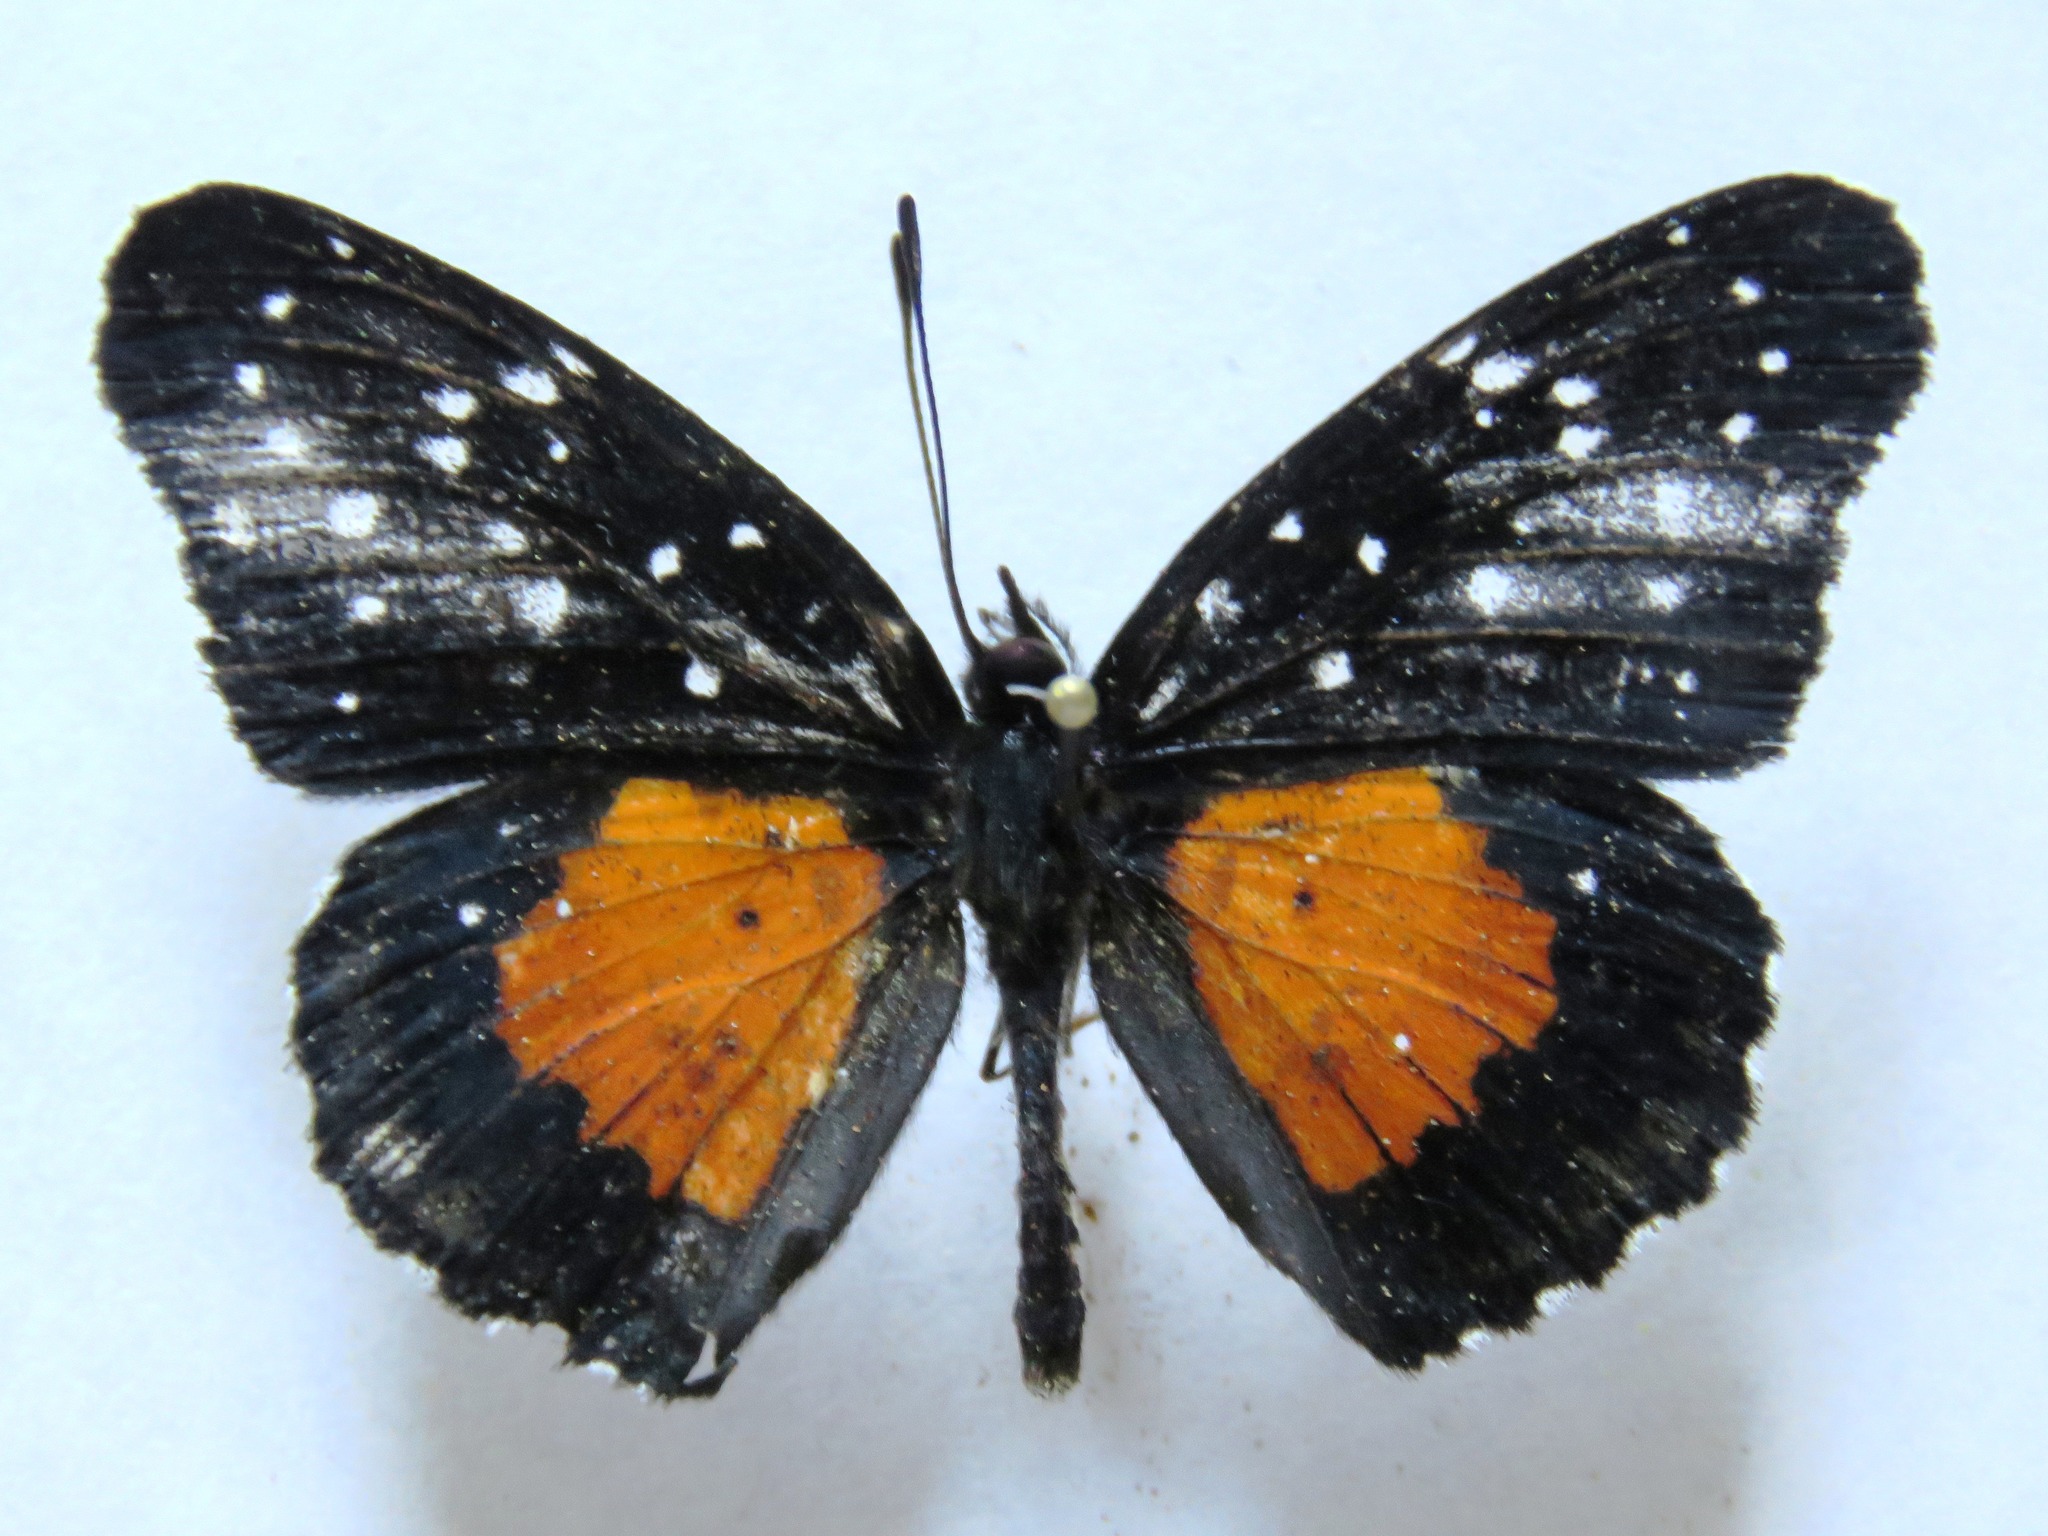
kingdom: Animalia
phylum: Arthropoda
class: Insecta
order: Lepidoptera
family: Nymphalidae
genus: Chlosyne
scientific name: Chlosyne janais
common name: Crimson patch
